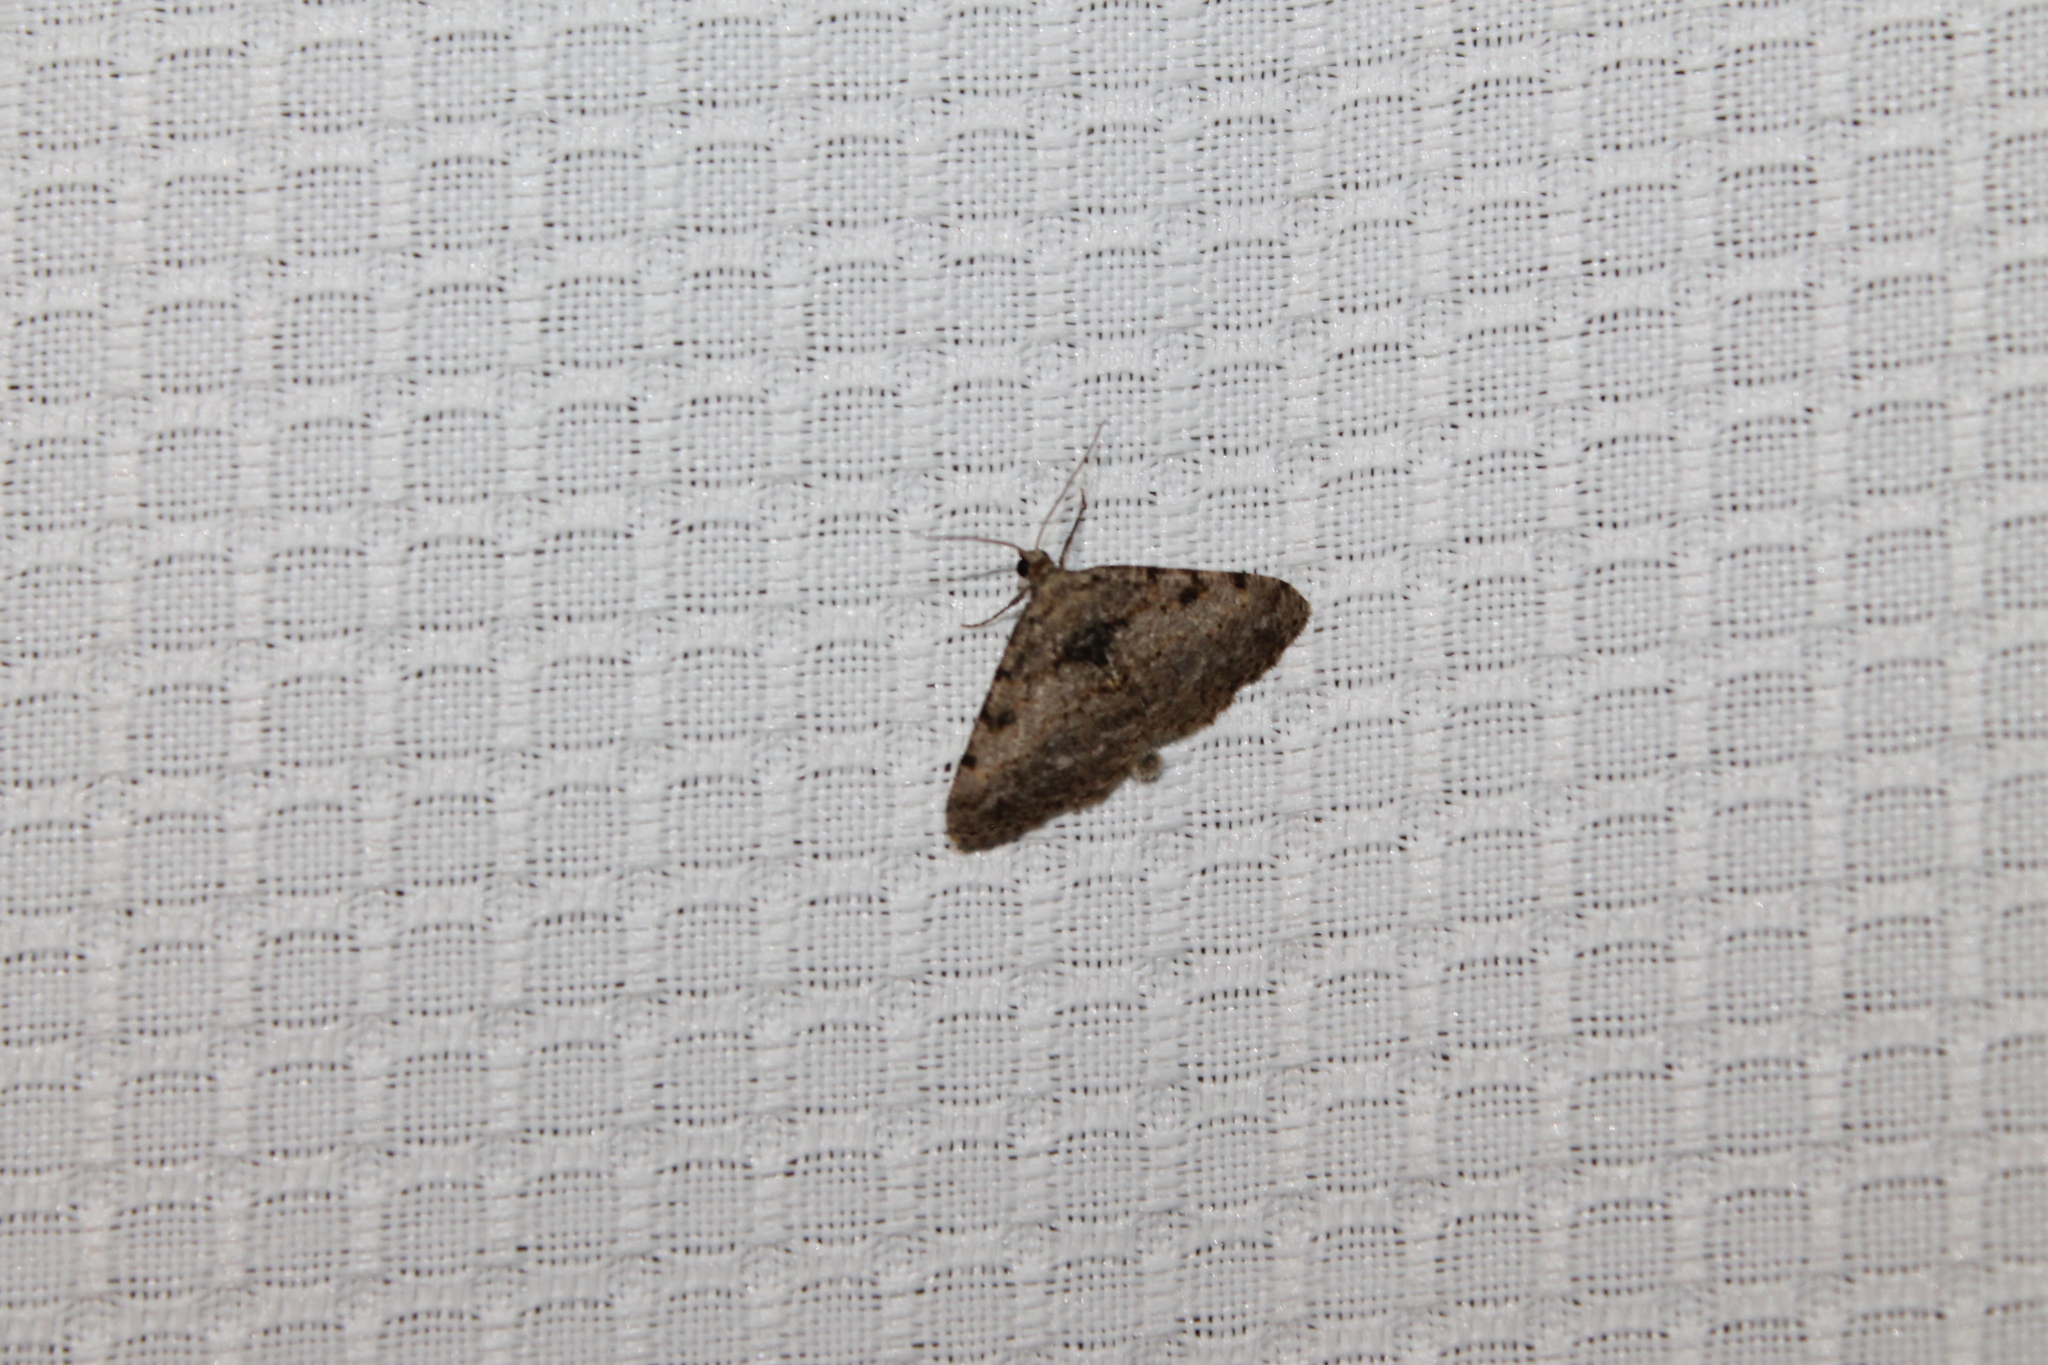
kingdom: Animalia
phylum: Arthropoda
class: Insecta
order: Lepidoptera
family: Geometridae
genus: Digrammia
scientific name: Digrammia gnophosaria
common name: Hollow-spotted angle
